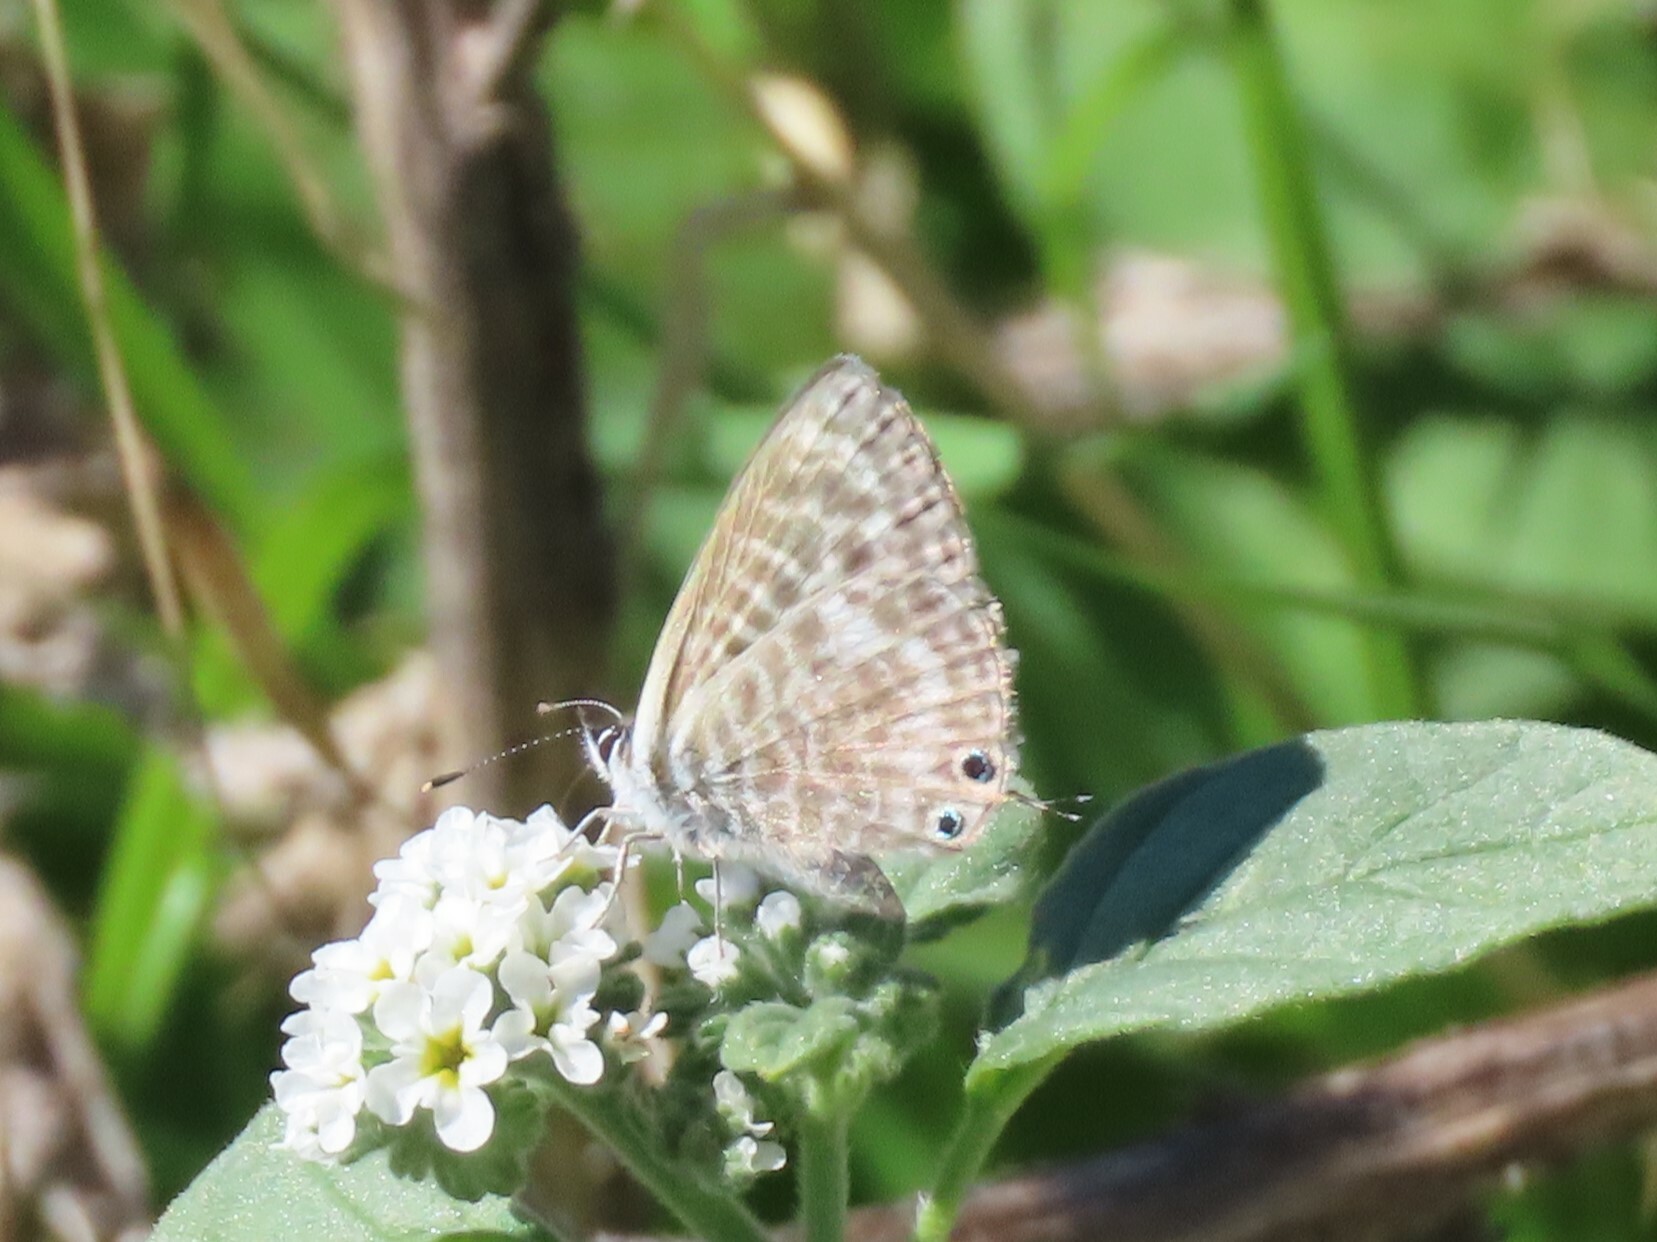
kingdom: Animalia
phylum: Arthropoda
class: Insecta
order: Lepidoptera
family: Lycaenidae
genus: Leptotes
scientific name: Leptotes pirithous
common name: Lang's short-tailed blue
